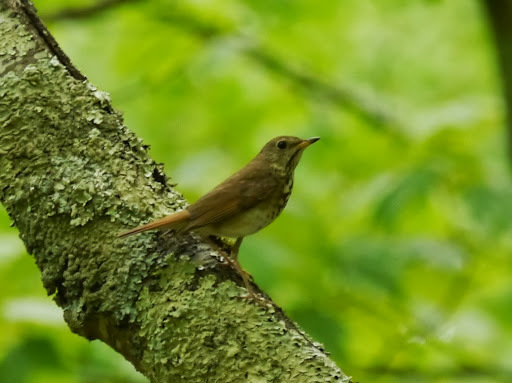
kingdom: Animalia
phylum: Chordata
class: Aves
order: Passeriformes
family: Turdidae
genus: Catharus
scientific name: Catharus guttatus
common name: Hermit thrush
